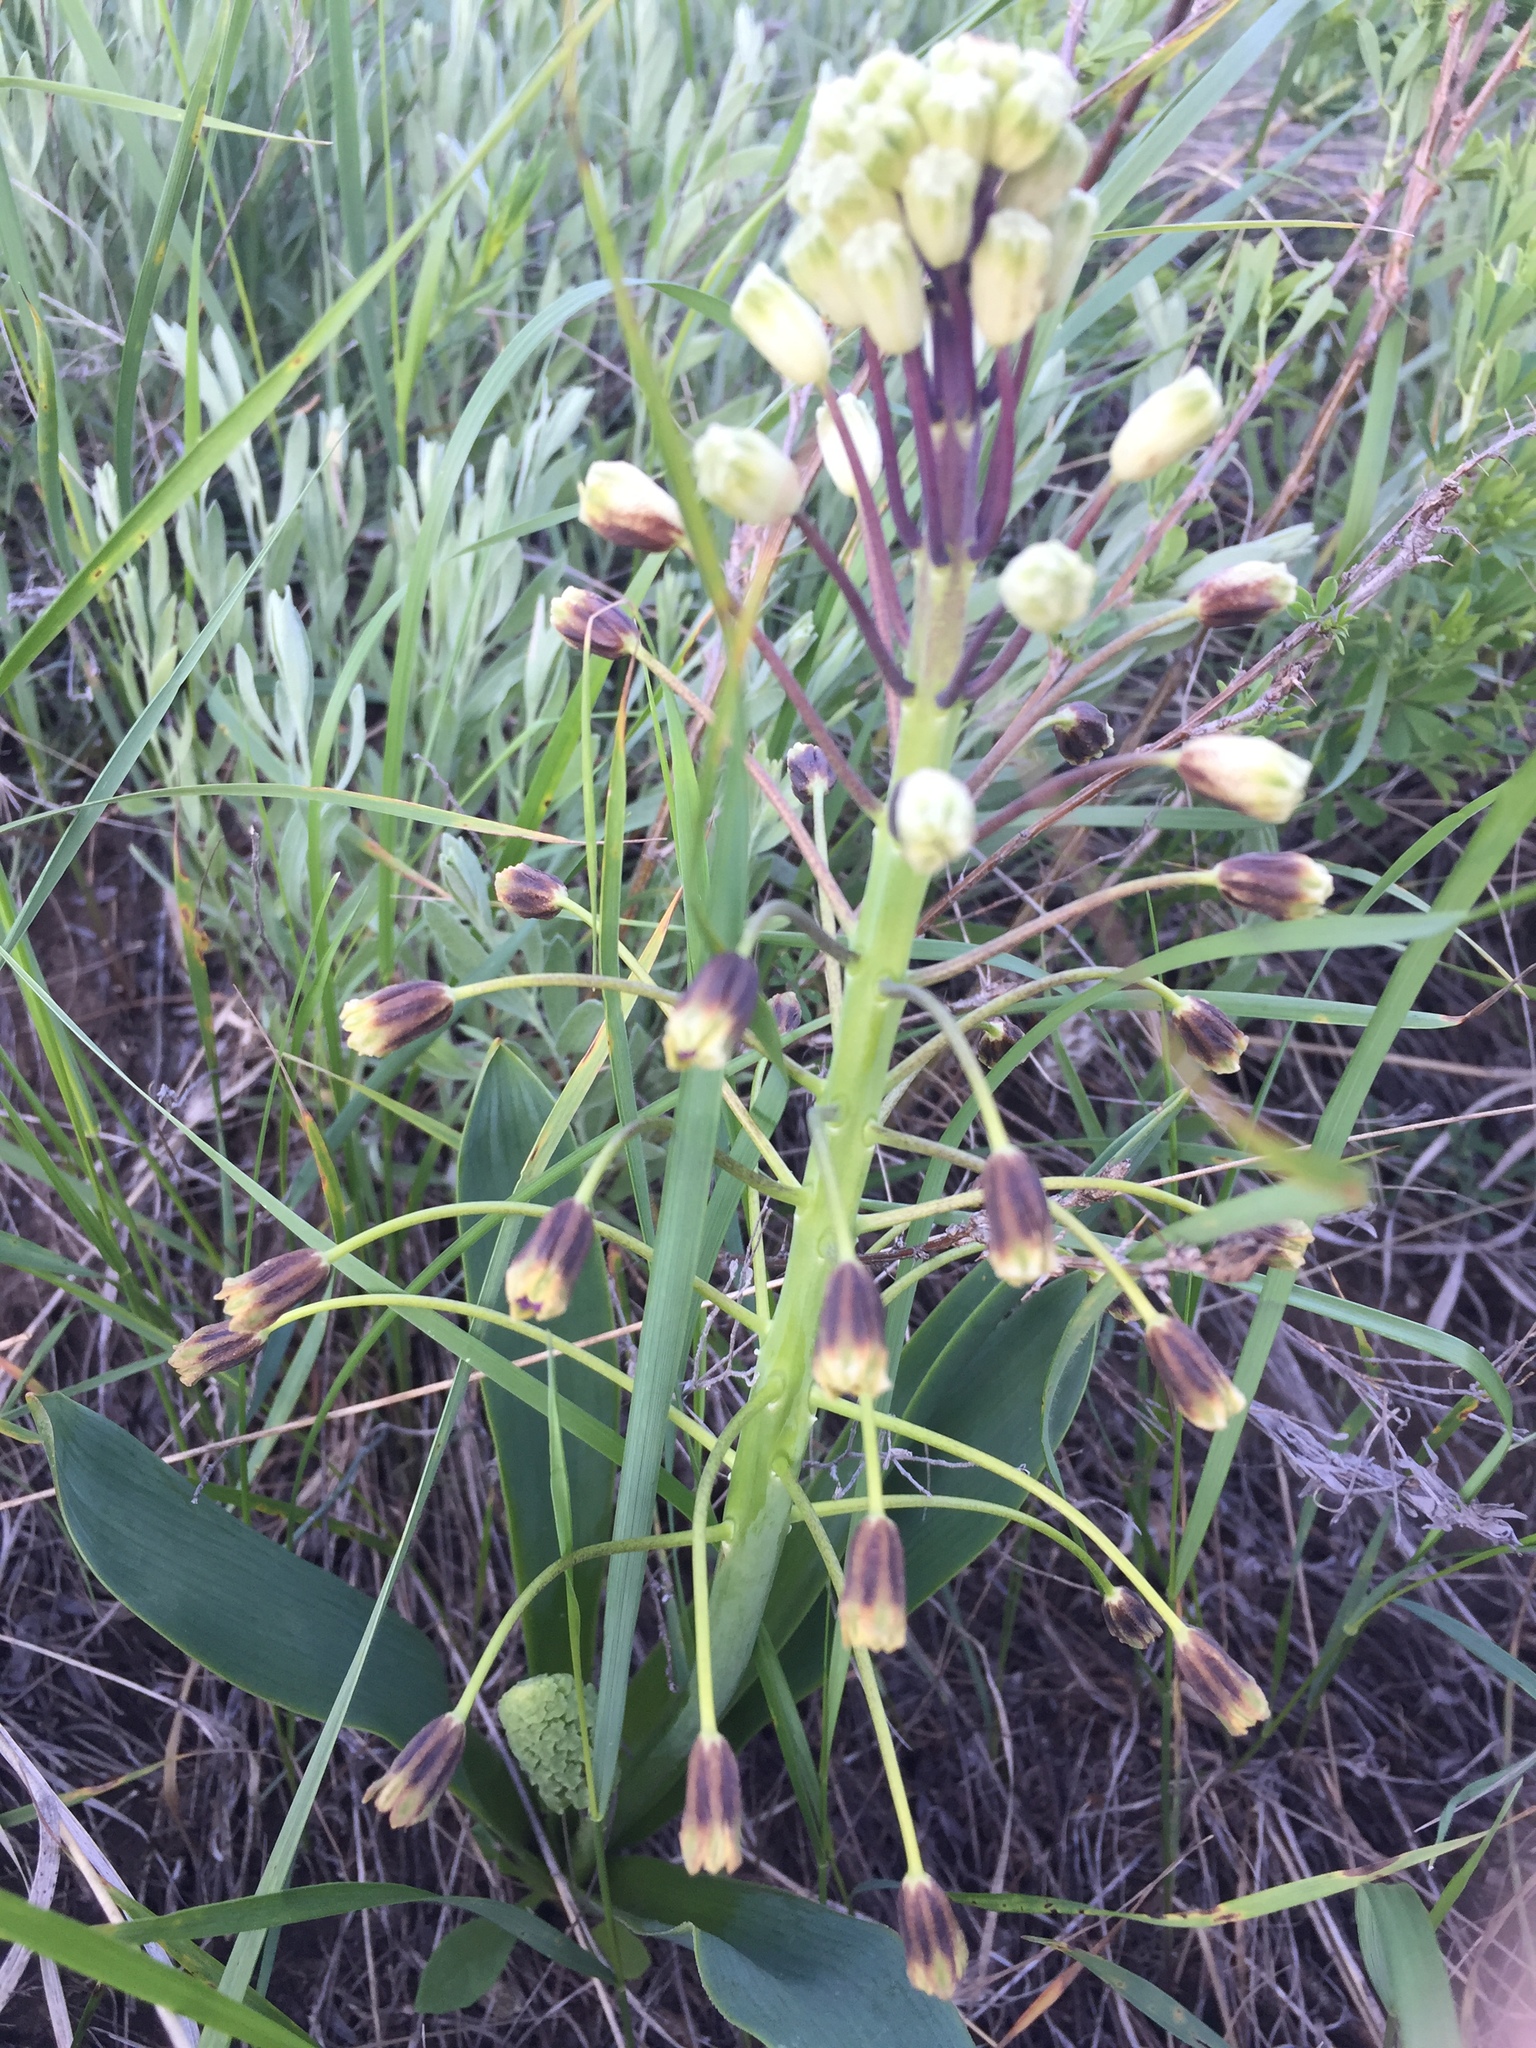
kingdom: Plantae
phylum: Tracheophyta
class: Liliopsida
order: Asparagales
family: Asparagaceae
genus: Bellevalia
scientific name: Bellevalia speciosa
